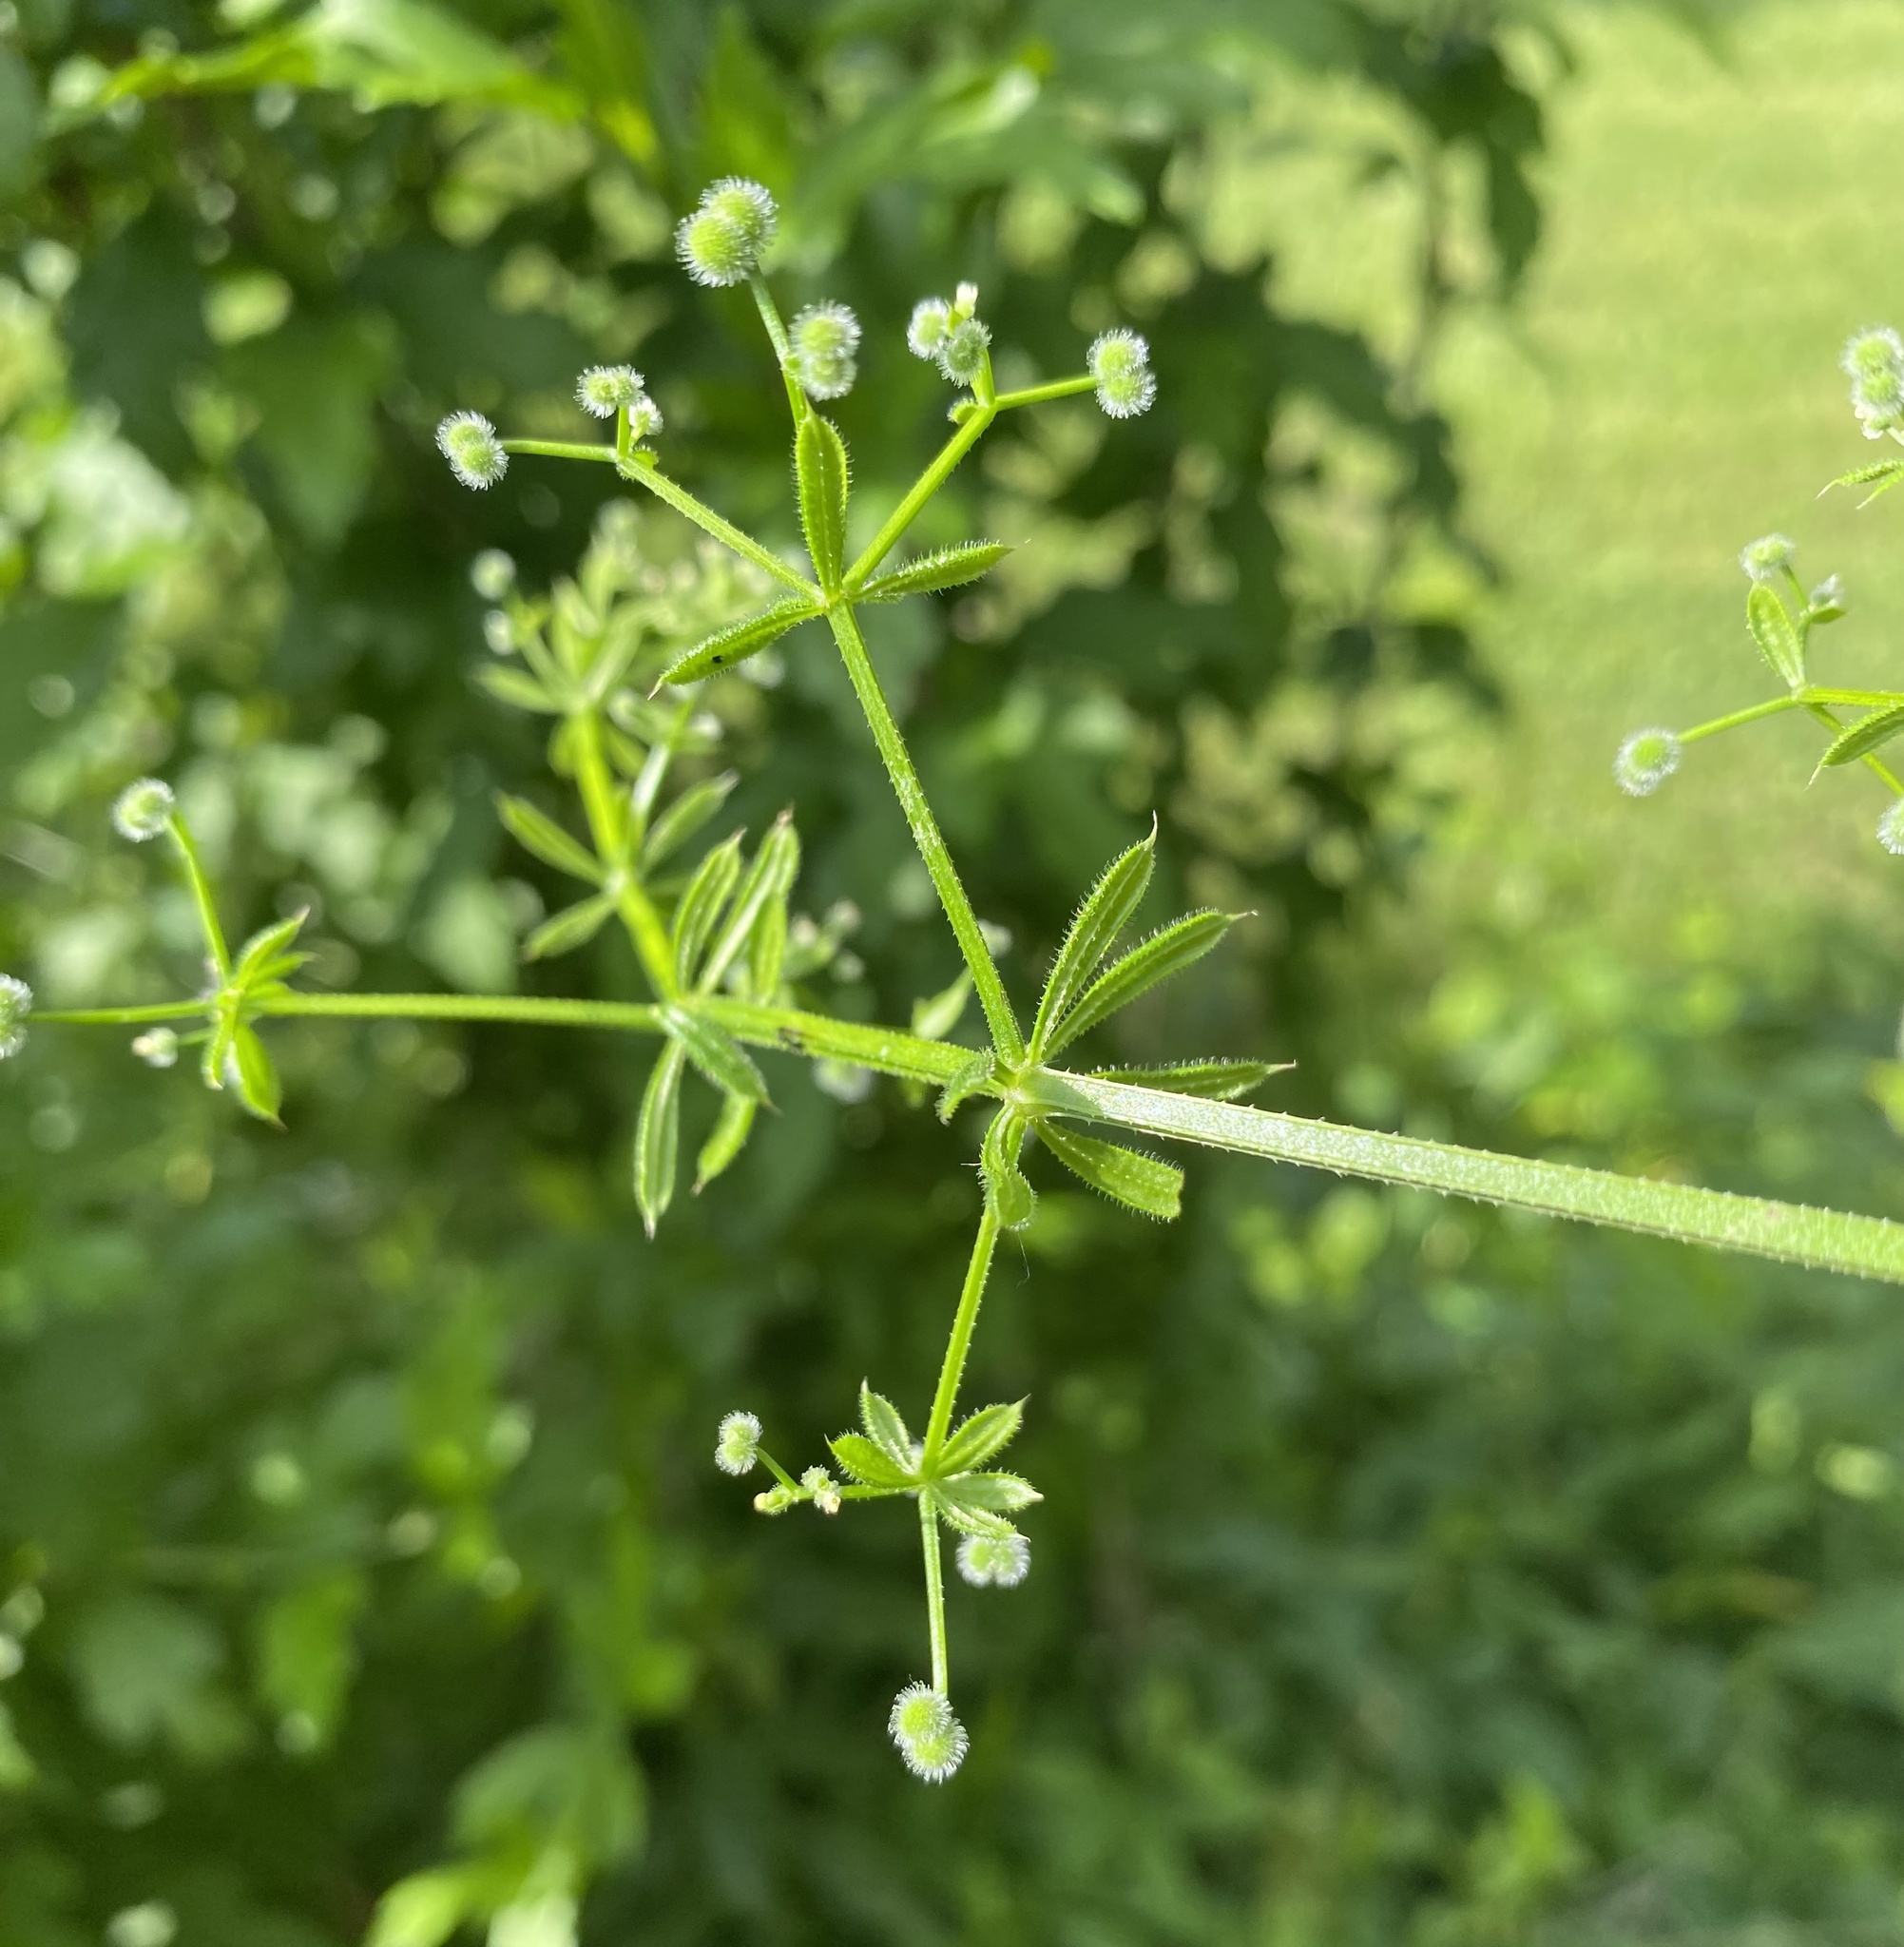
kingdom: Plantae
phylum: Tracheophyta
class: Magnoliopsida
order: Gentianales
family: Rubiaceae
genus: Galium
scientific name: Galium aparine
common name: Cleavers
